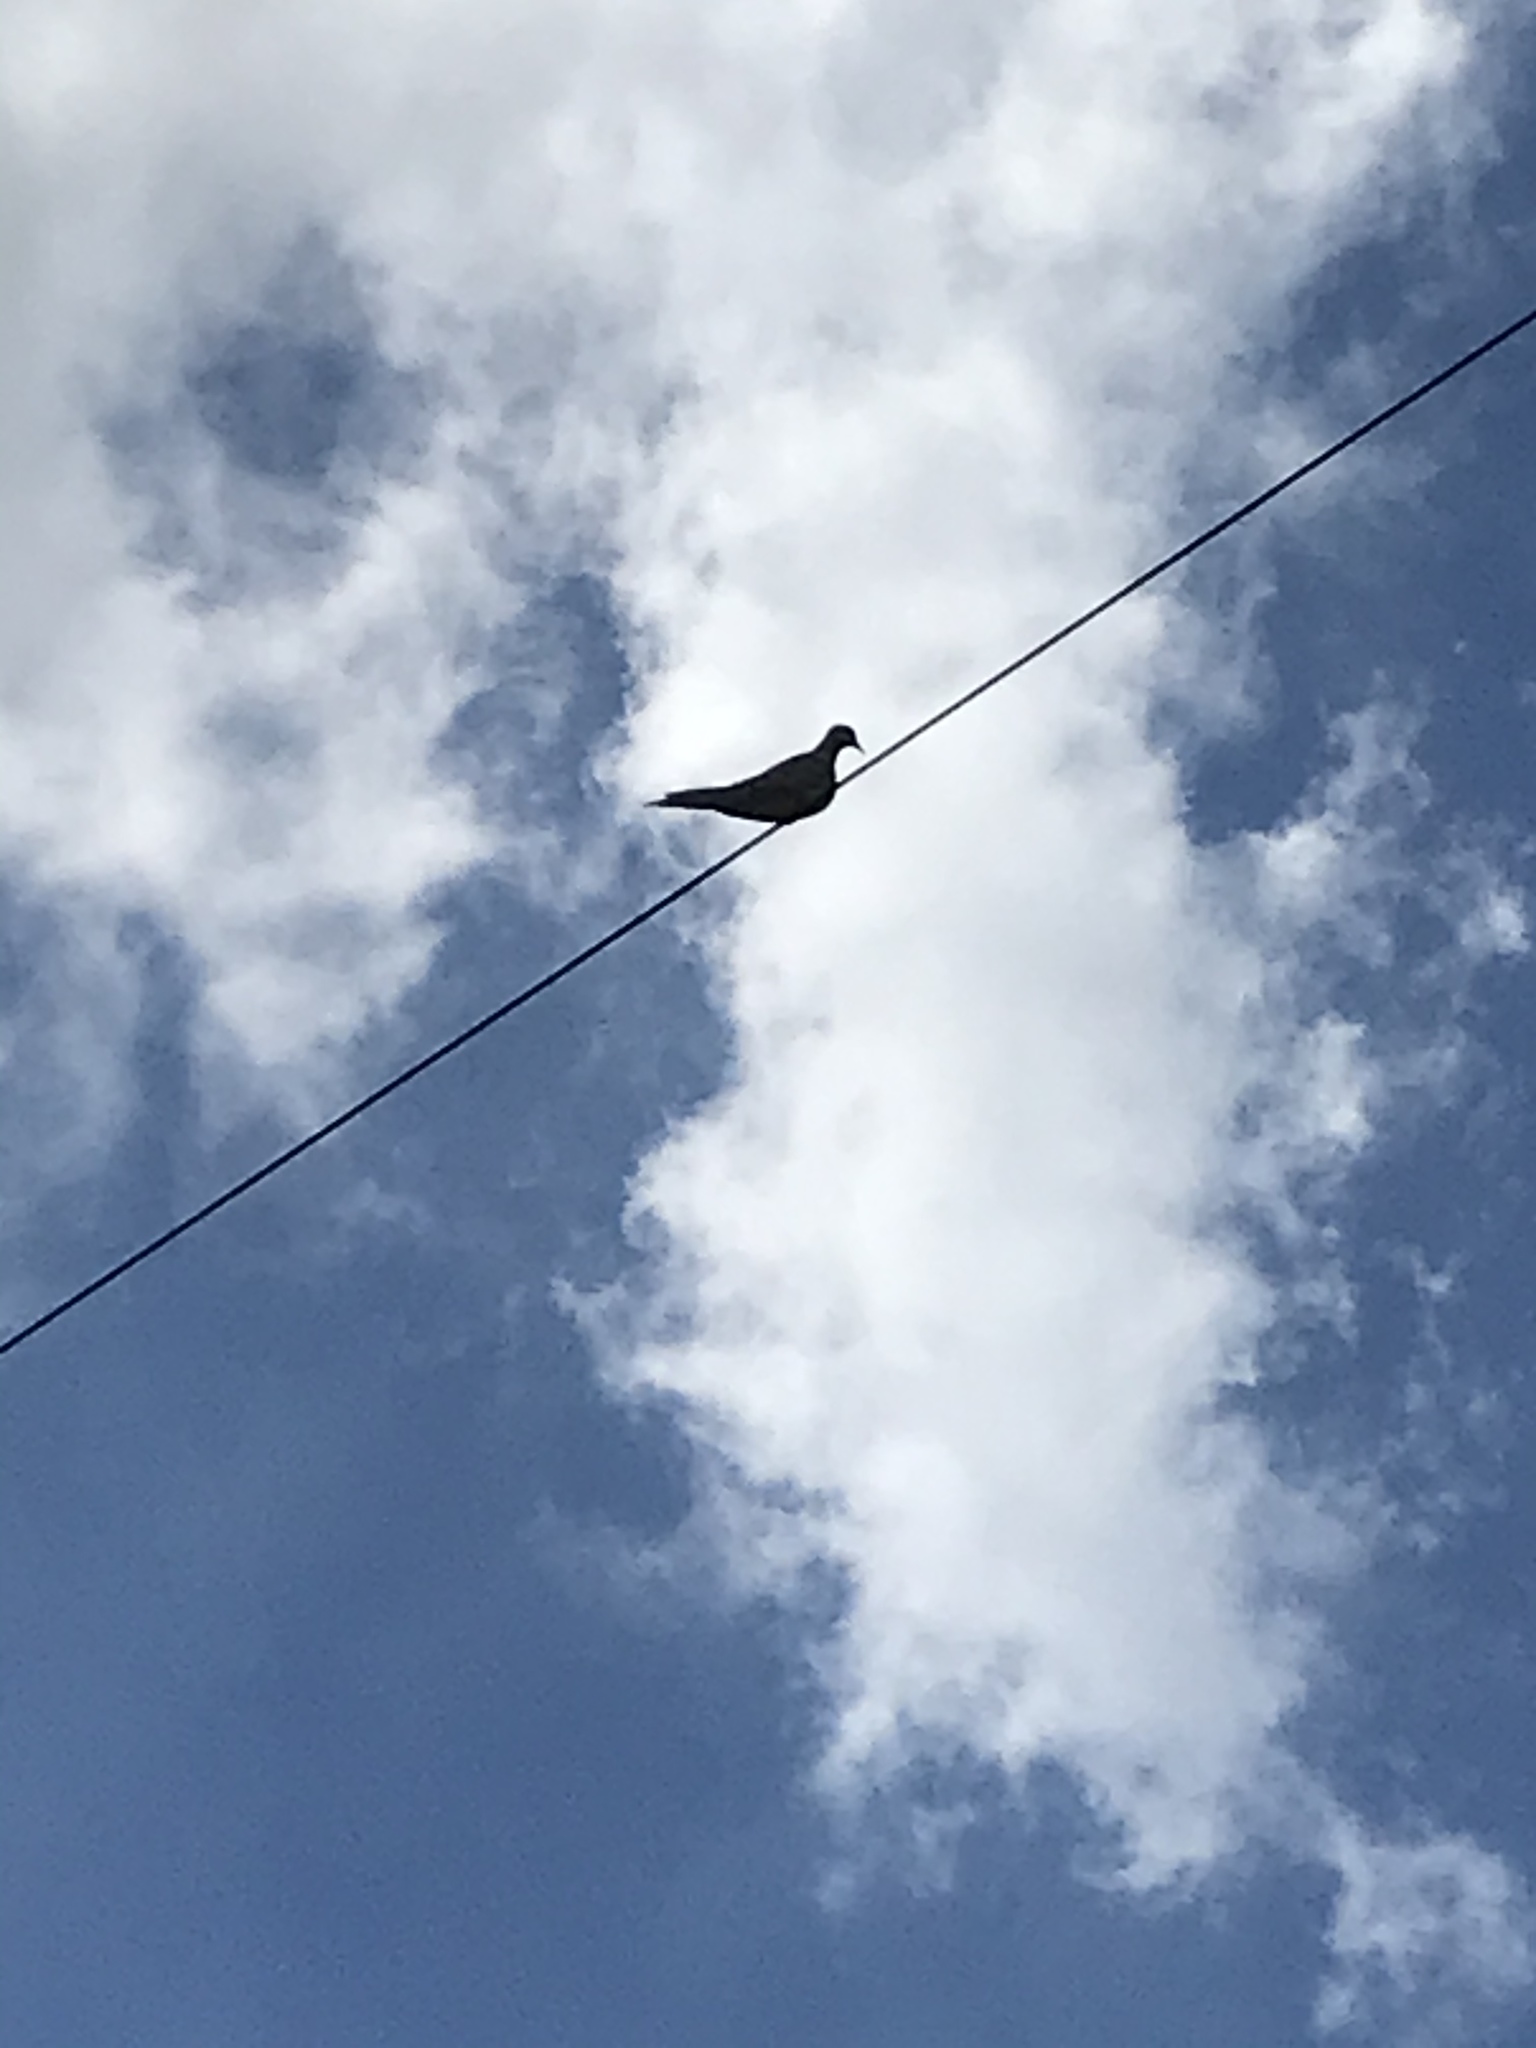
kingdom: Animalia
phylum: Chordata
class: Aves
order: Columbiformes
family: Columbidae
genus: Zenaida
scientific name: Zenaida macroura
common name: Mourning dove
